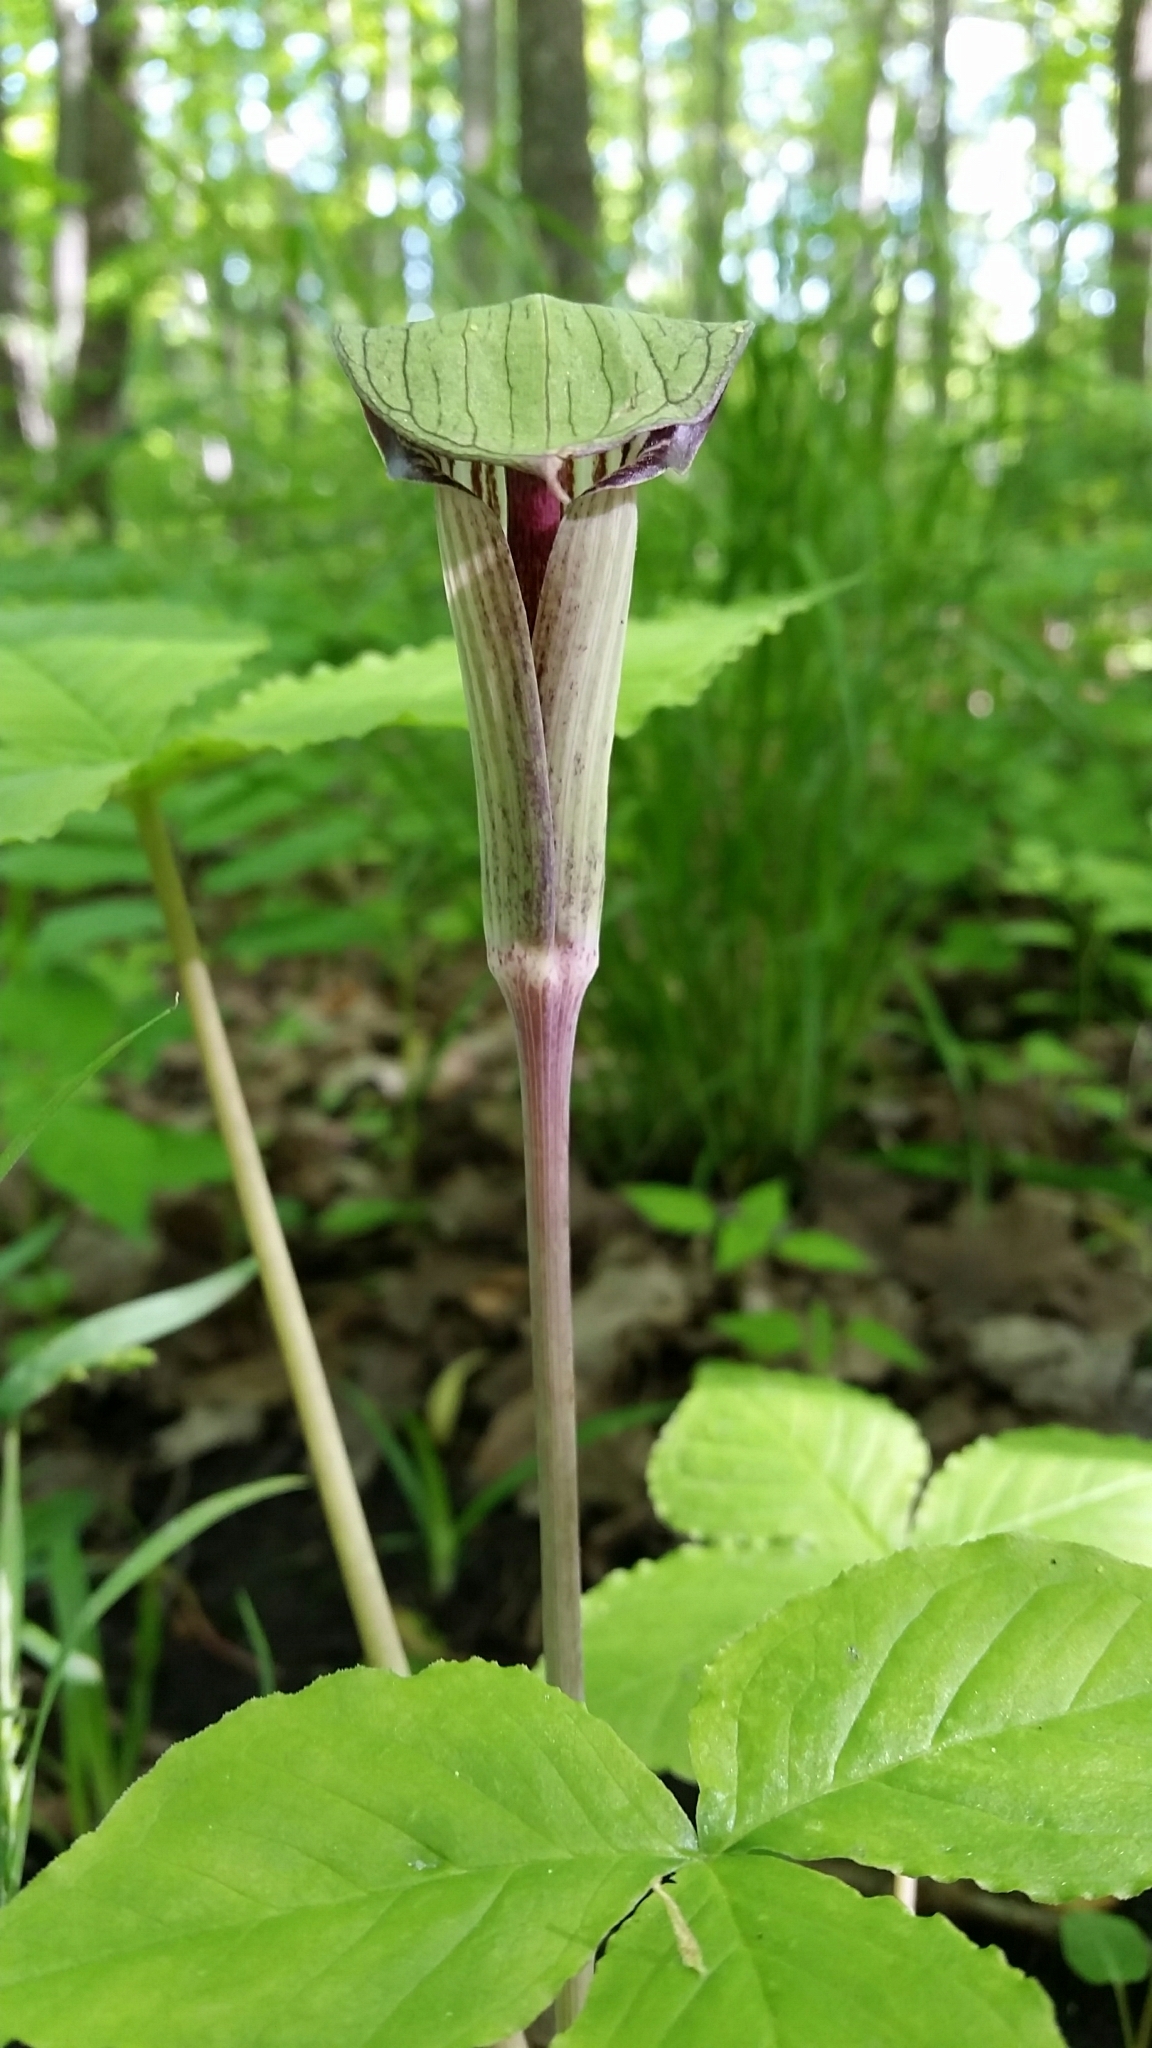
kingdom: Plantae
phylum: Tracheophyta
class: Liliopsida
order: Alismatales
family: Araceae
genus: Arisaema
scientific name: Arisaema triphyllum
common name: Jack-in-the-pulpit
